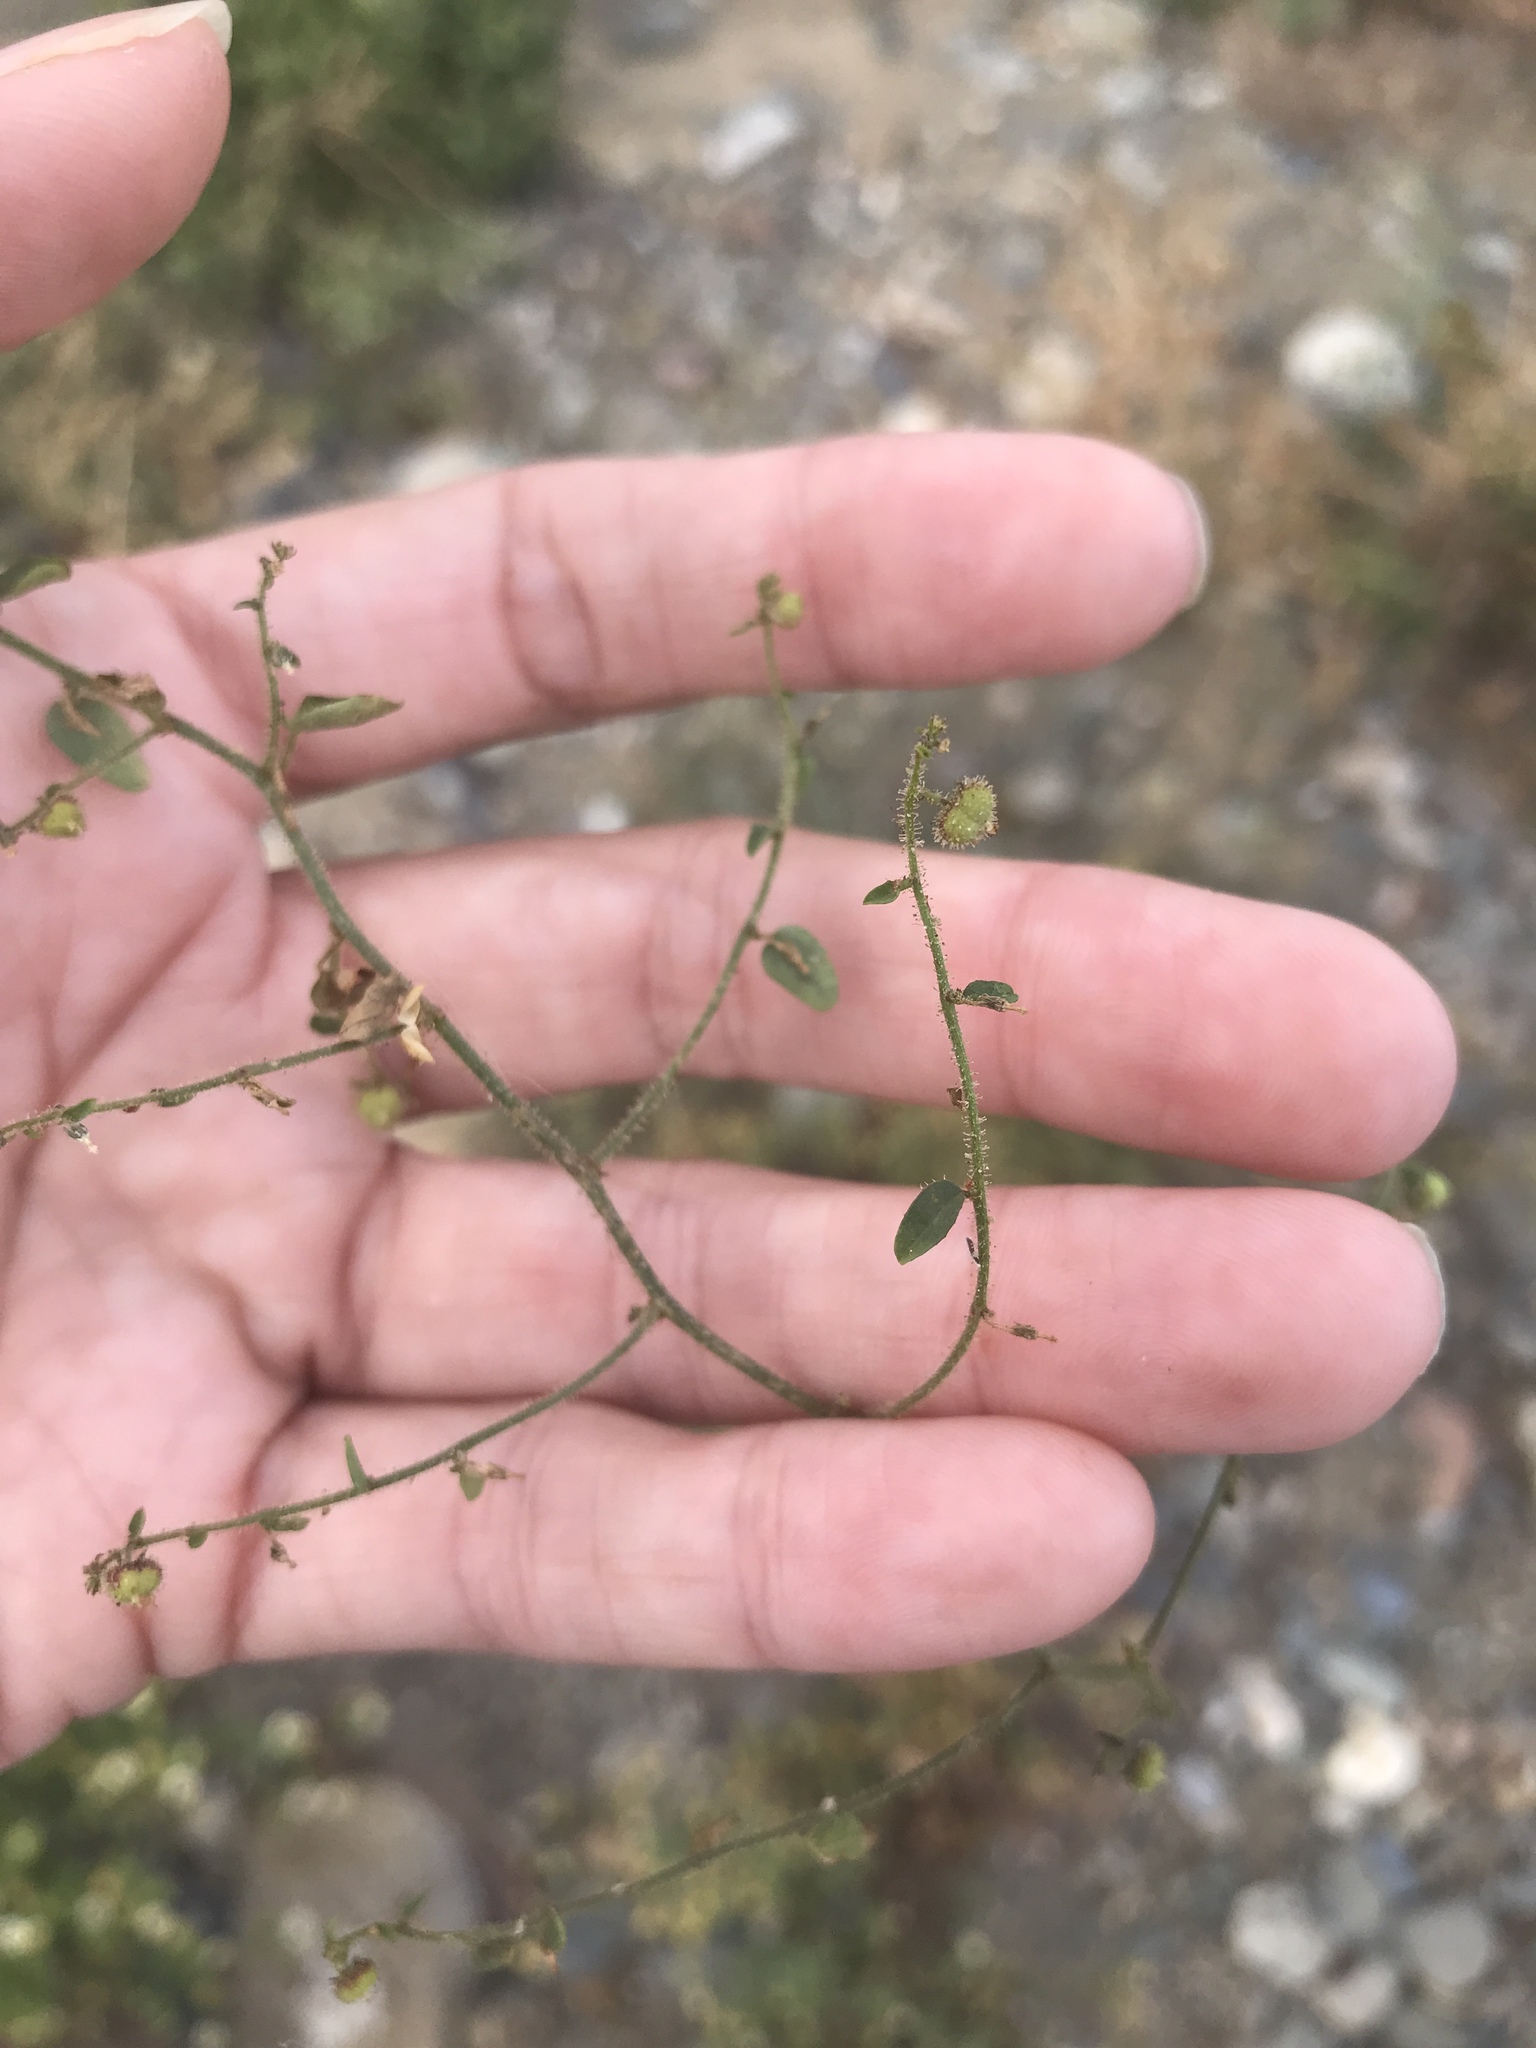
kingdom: Plantae
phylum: Tracheophyta
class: Magnoliopsida
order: Malpighiales
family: Phyllanthaceae
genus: Andrachne
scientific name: Andrachne microphylla
